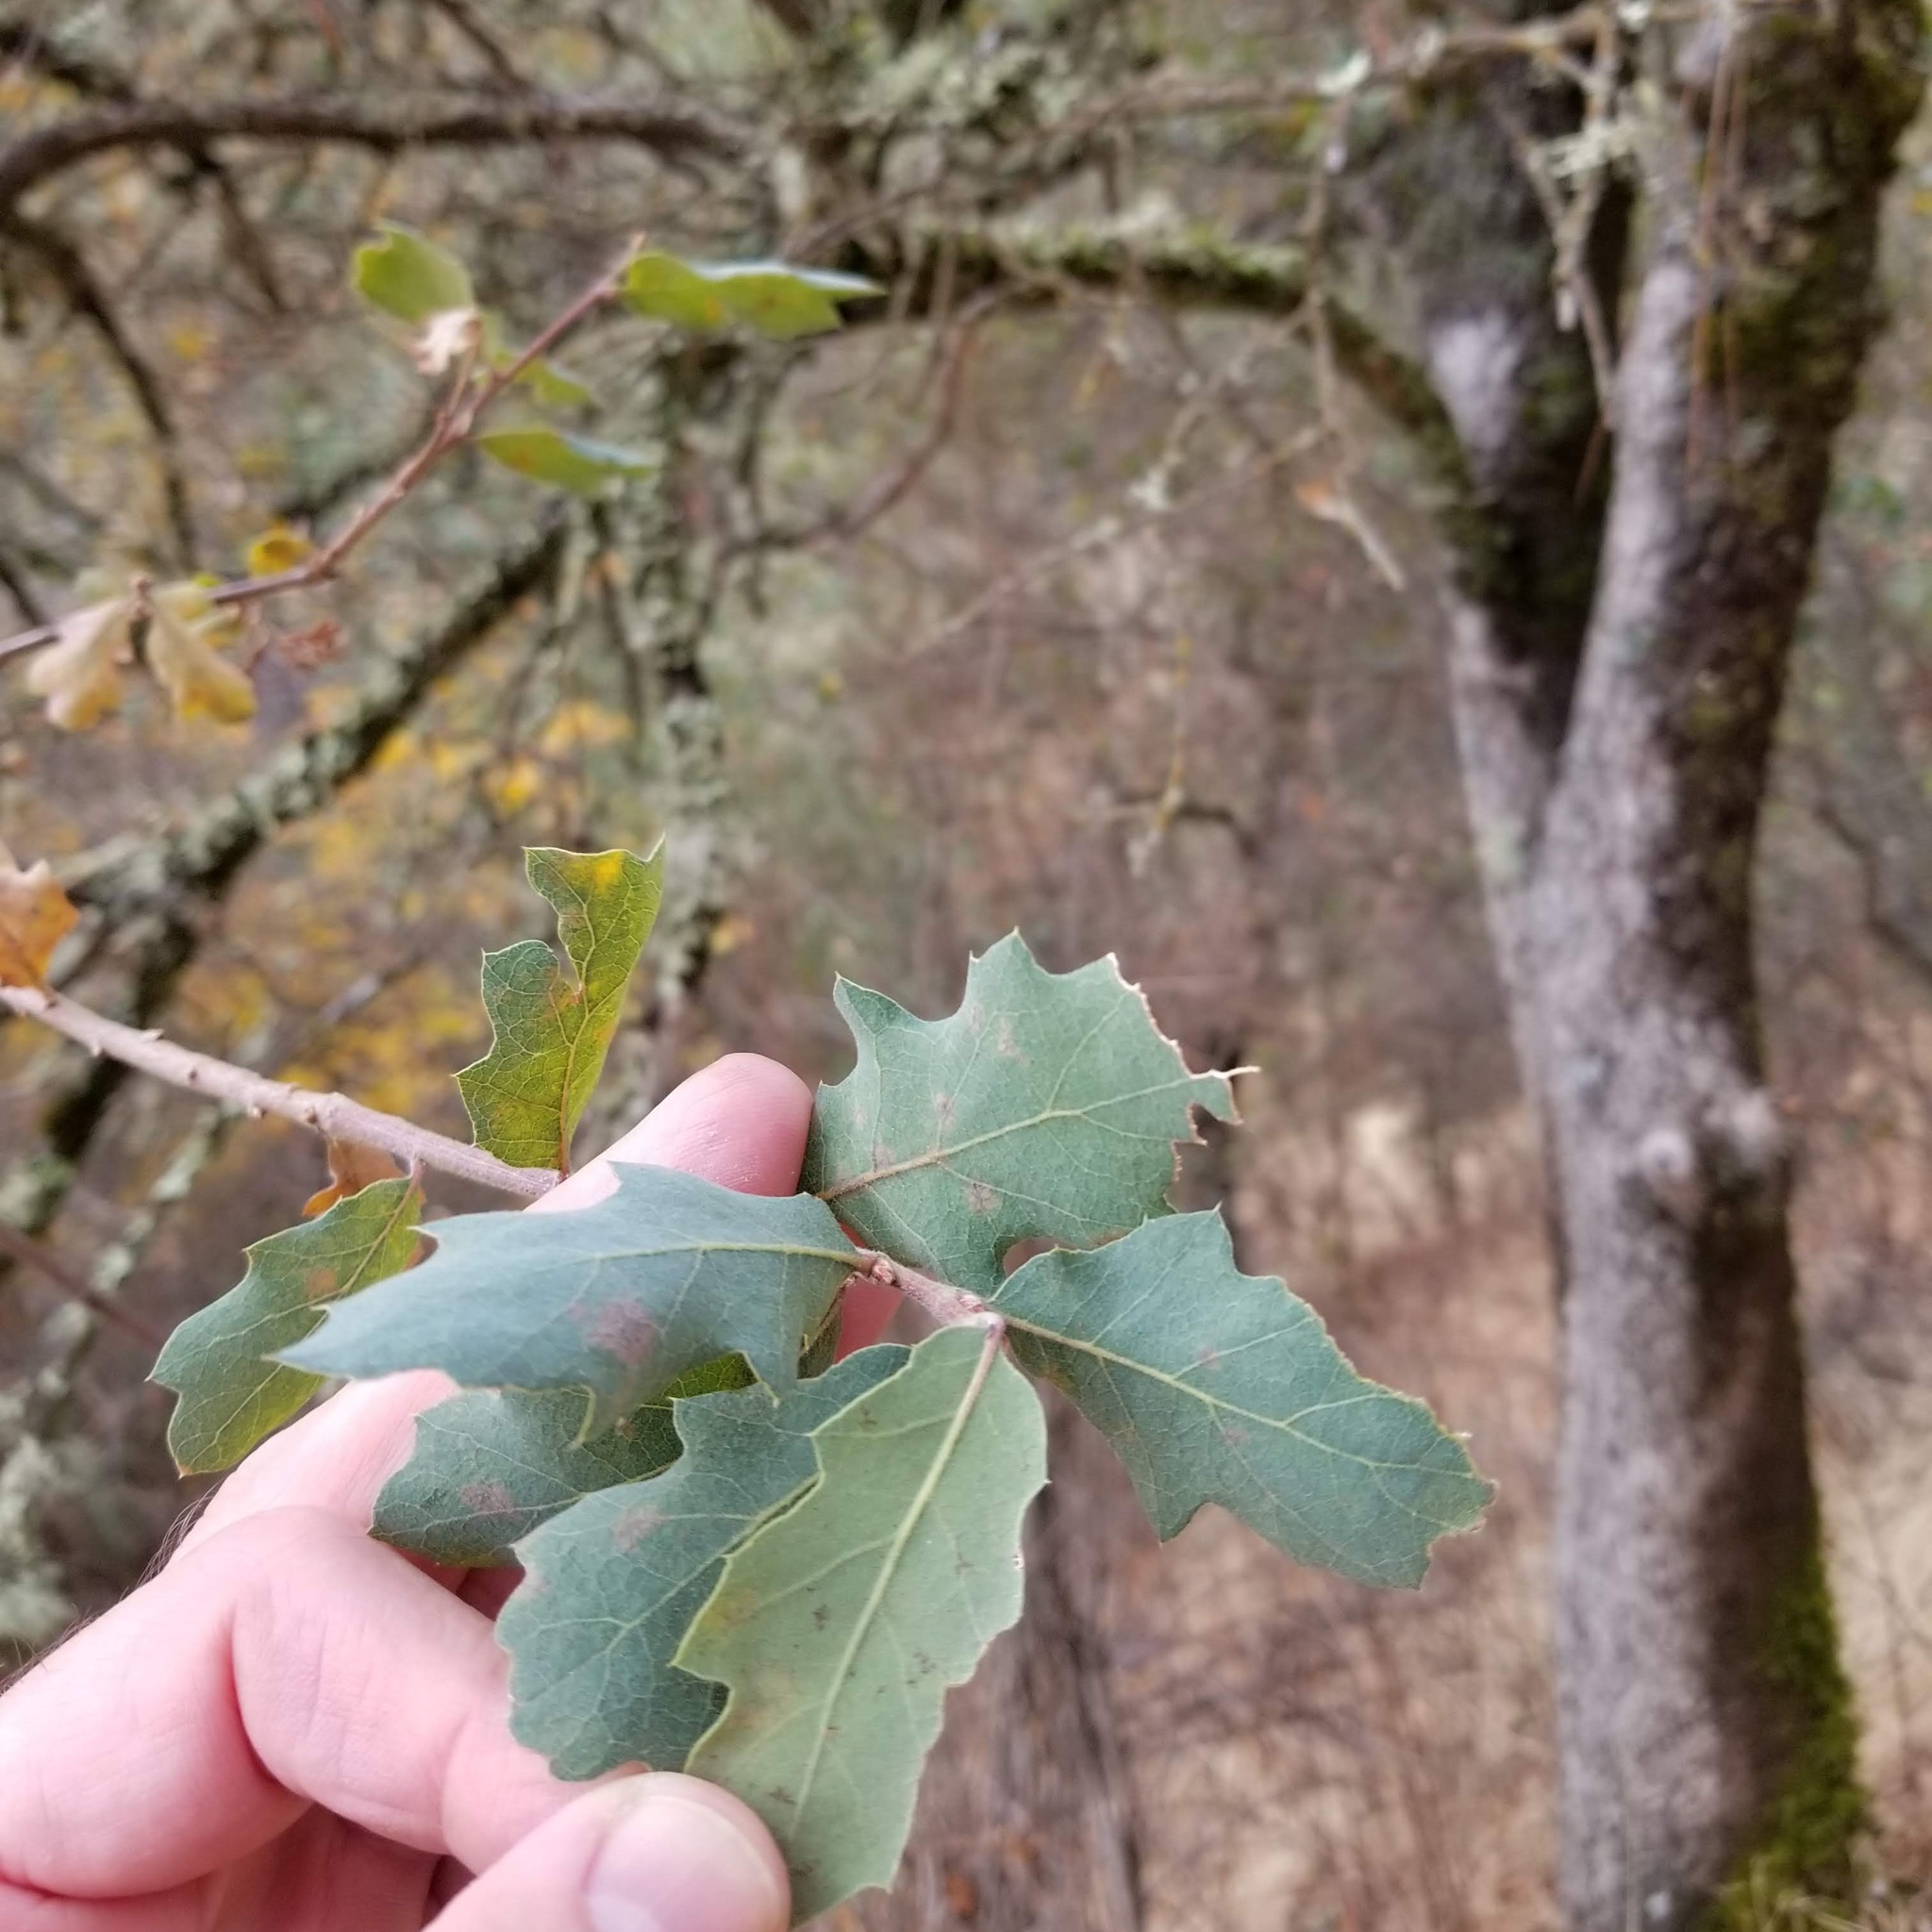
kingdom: Plantae
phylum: Tracheophyta
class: Magnoliopsida
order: Fagales
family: Fagaceae
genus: Quercus
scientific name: Quercus douglasii
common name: Blue oak
